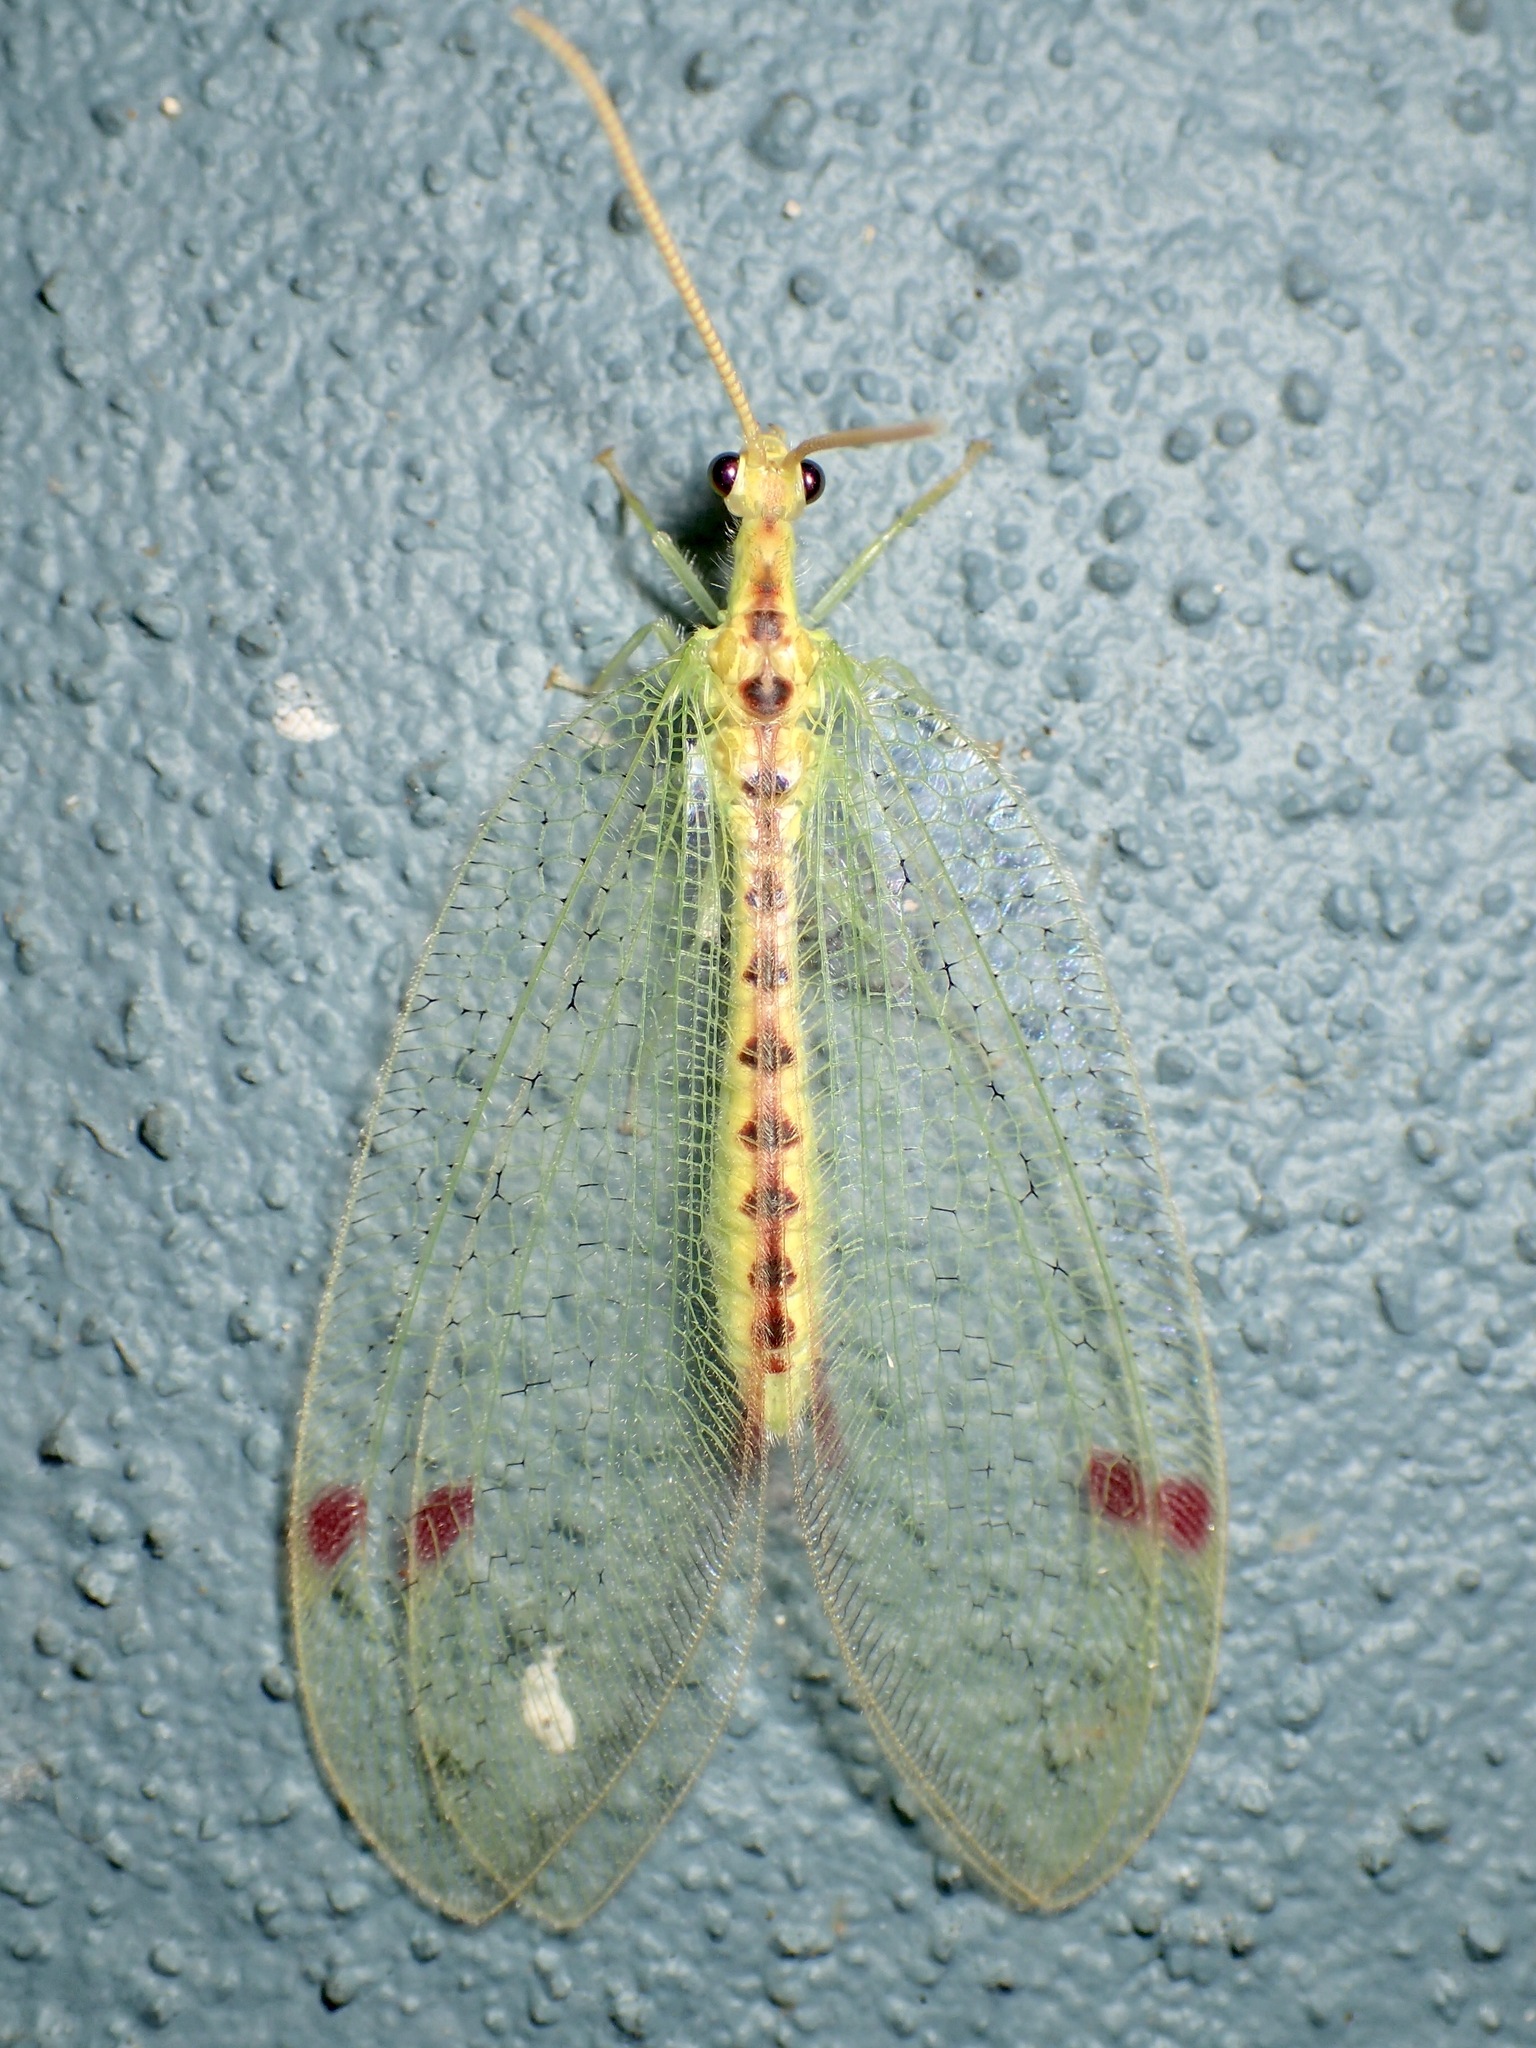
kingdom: Animalia
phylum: Arthropoda
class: Insecta
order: Neuroptera
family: Nymphidae
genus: Norfolius
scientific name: Norfolius howensis
